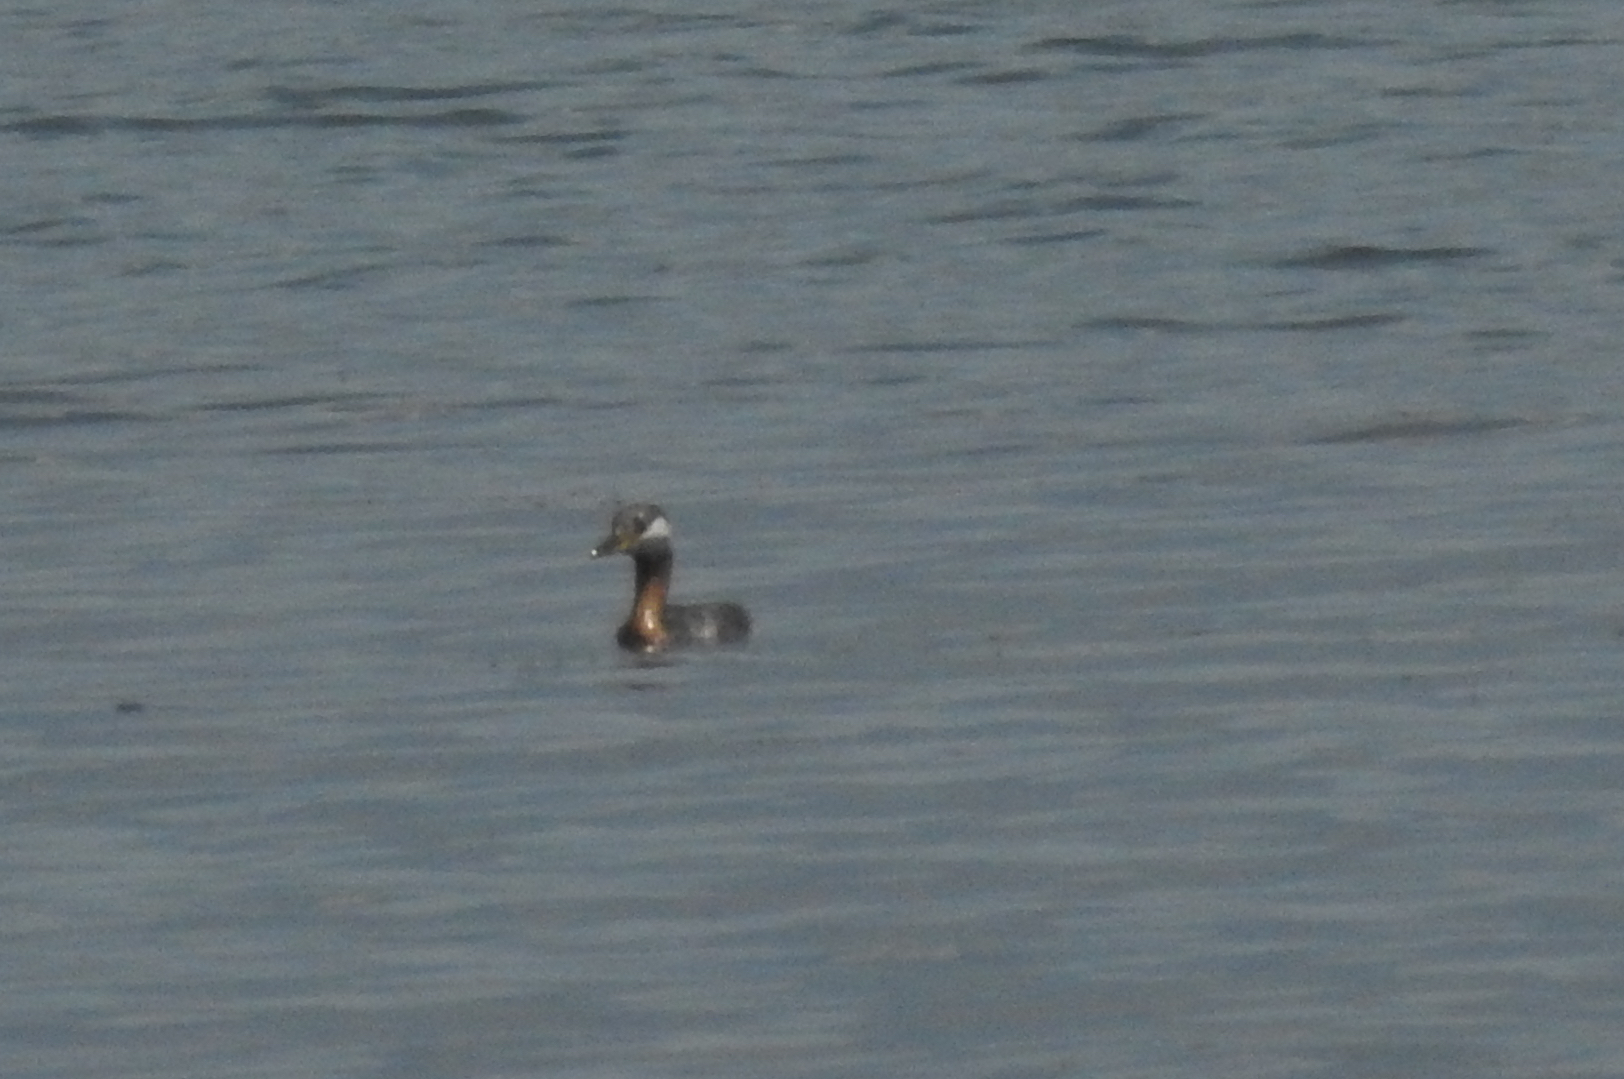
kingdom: Animalia
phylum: Chordata
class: Aves
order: Podicipediformes
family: Podicipedidae
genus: Podiceps
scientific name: Podiceps grisegena
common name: Red-necked grebe
